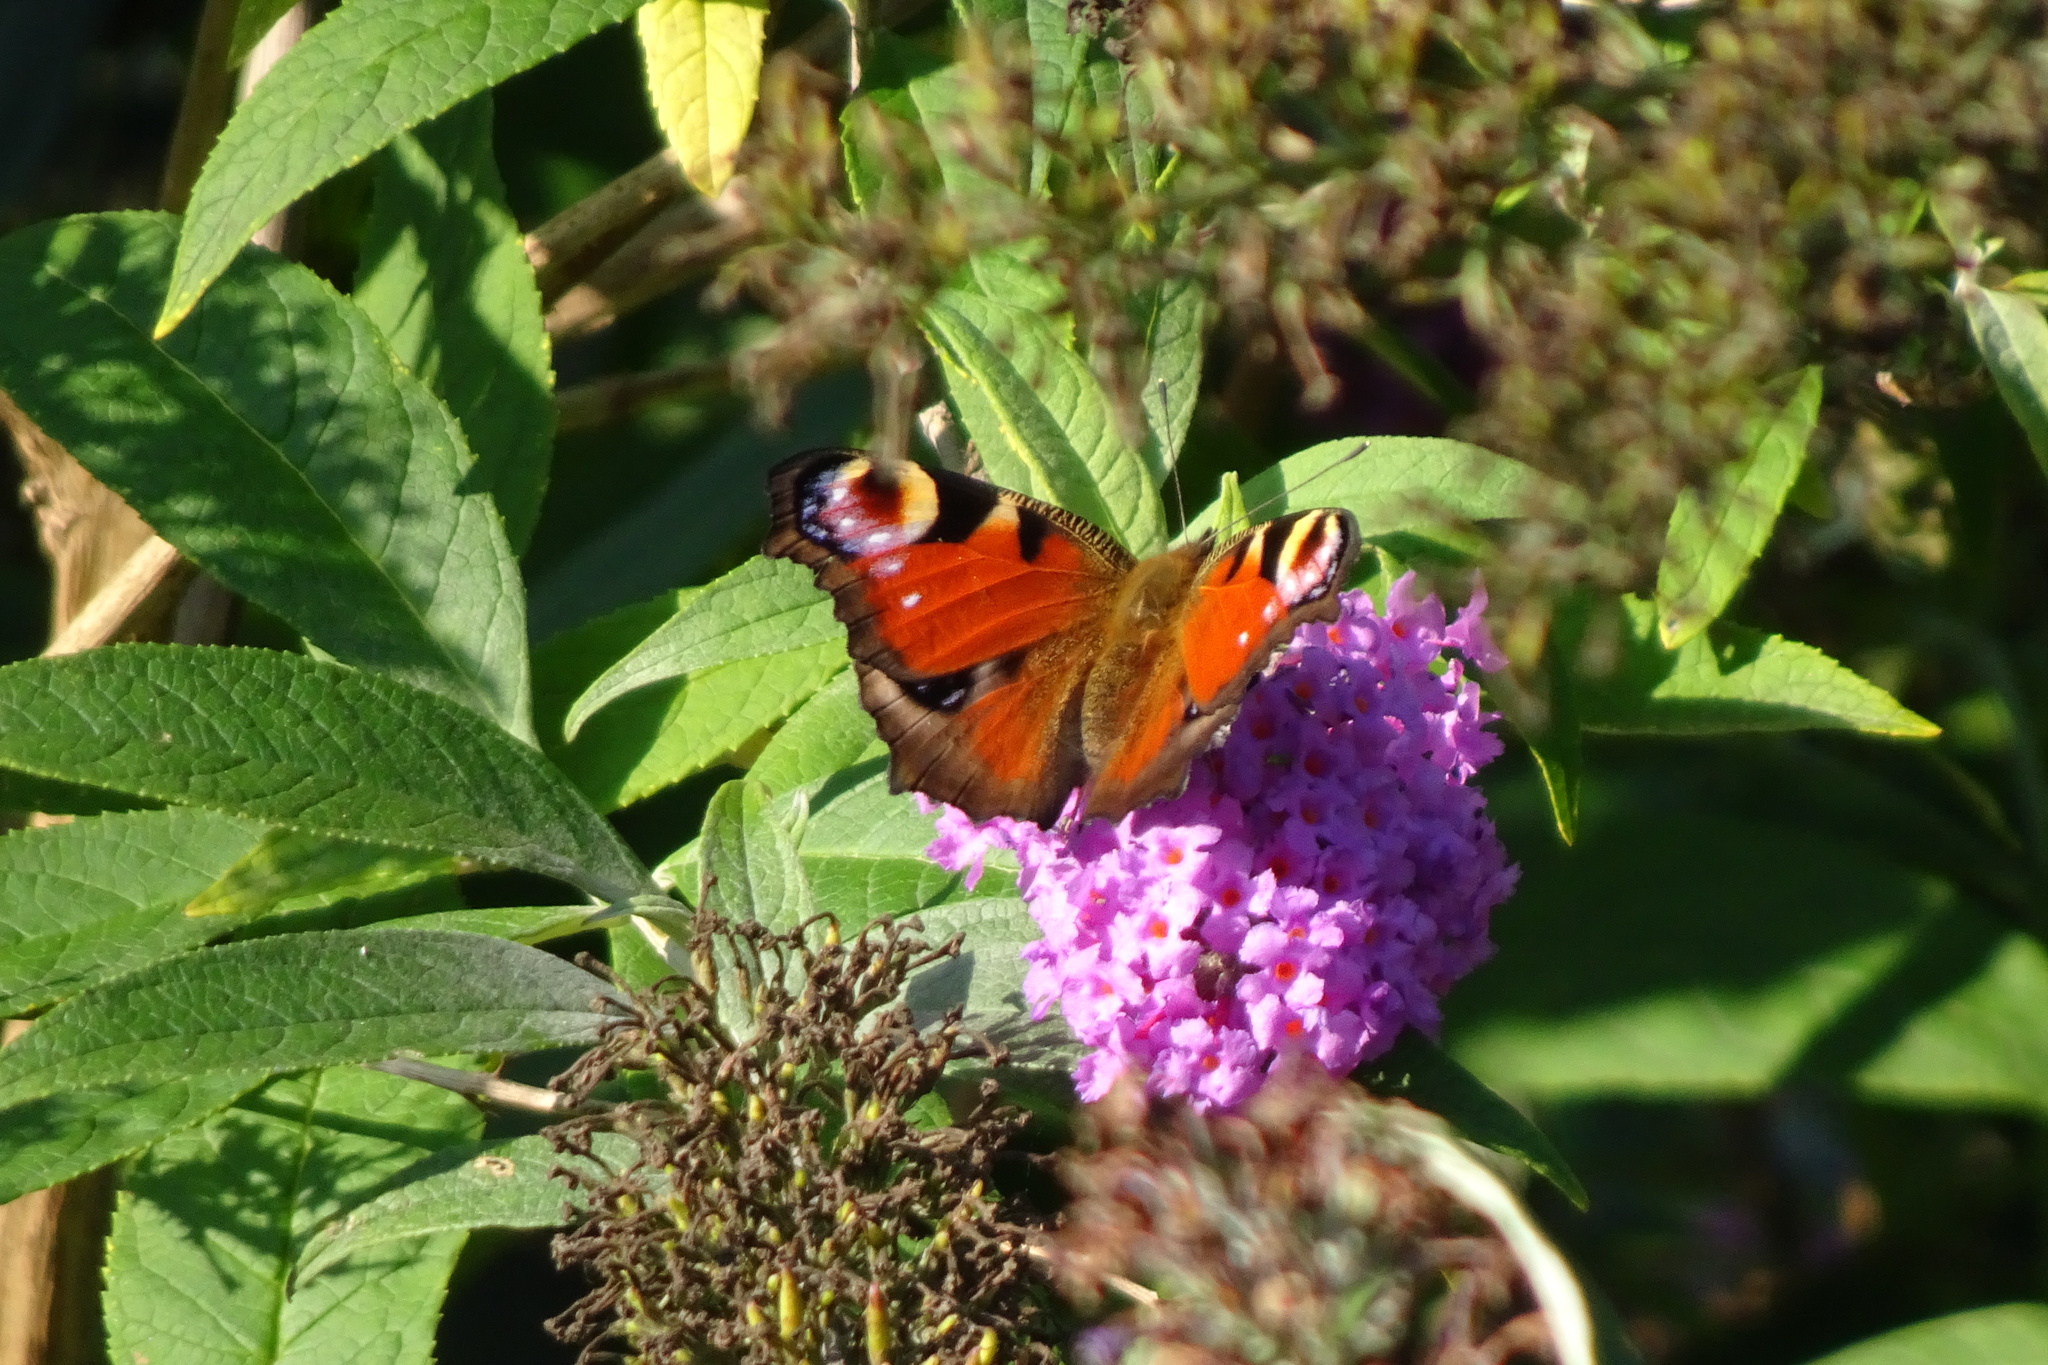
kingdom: Animalia
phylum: Arthropoda
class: Insecta
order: Lepidoptera
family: Nymphalidae
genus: Aglais
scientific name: Aglais io
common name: Peacock
